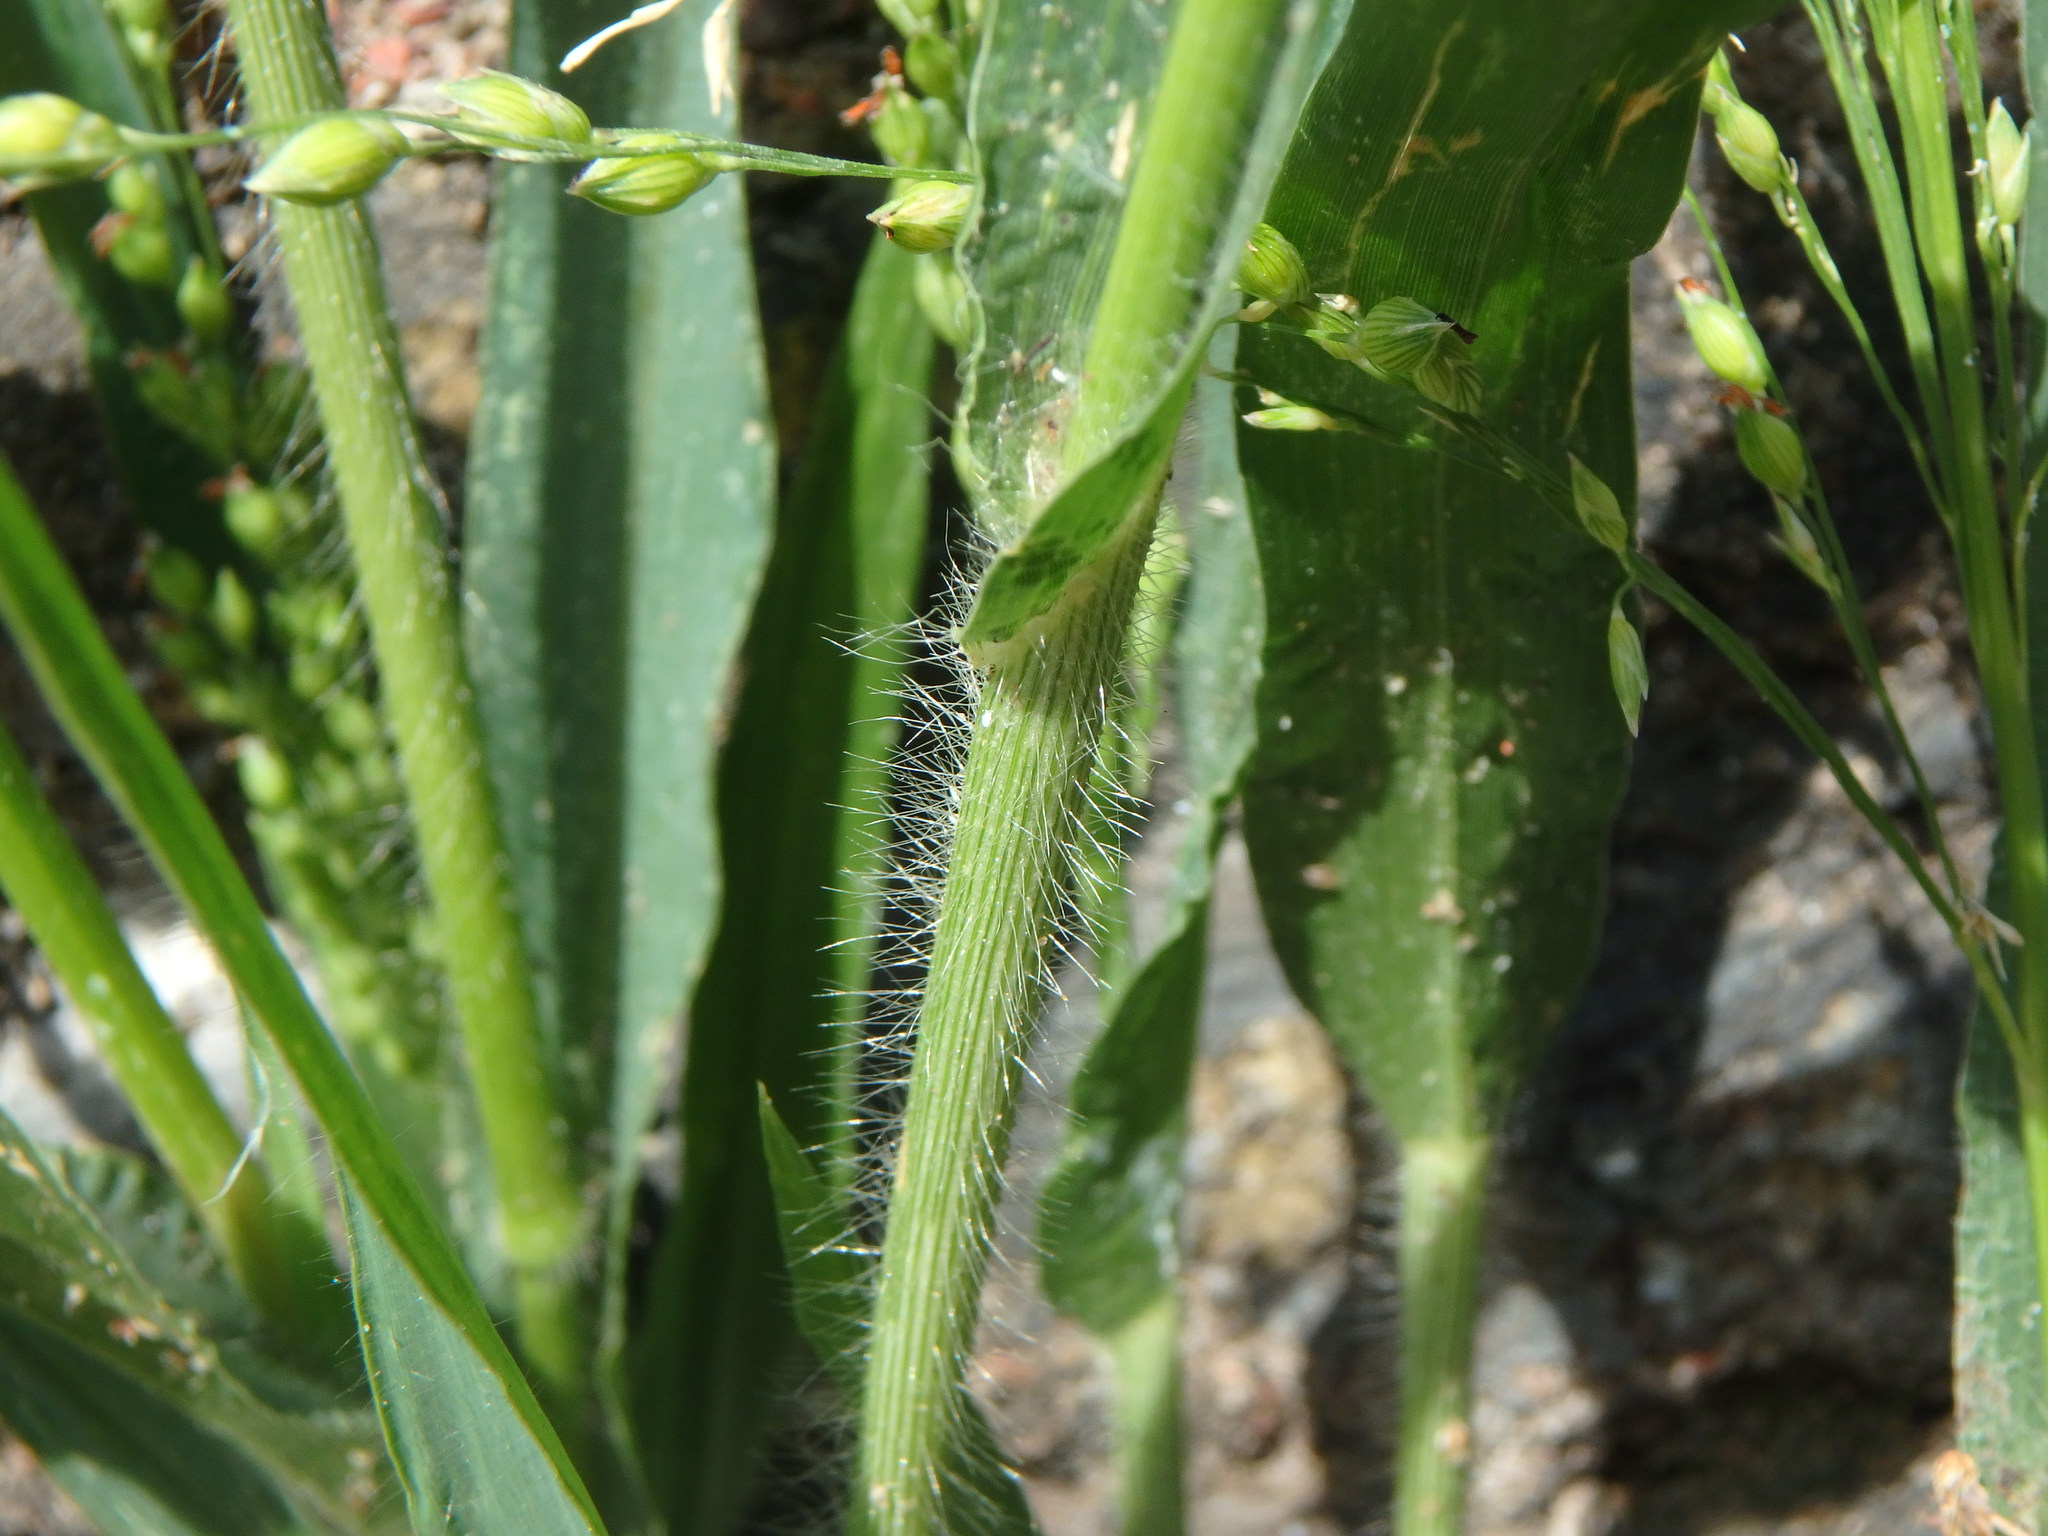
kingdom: Plantae
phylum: Tracheophyta
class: Liliopsida
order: Poales
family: Poaceae
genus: Panicum
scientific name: Panicum miliaceum
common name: Common millet
